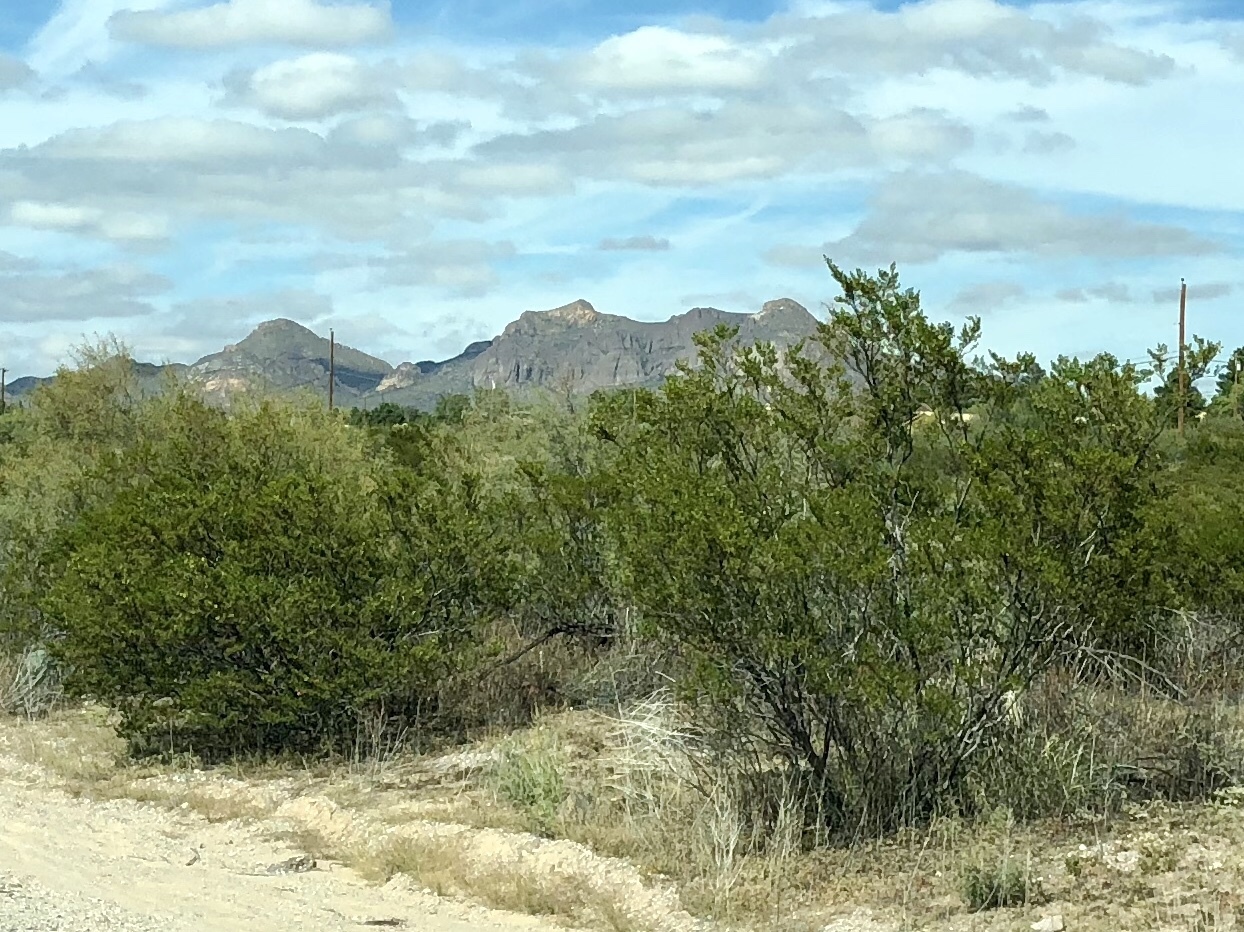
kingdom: Plantae
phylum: Tracheophyta
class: Magnoliopsida
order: Zygophyllales
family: Zygophyllaceae
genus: Larrea
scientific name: Larrea tridentata
